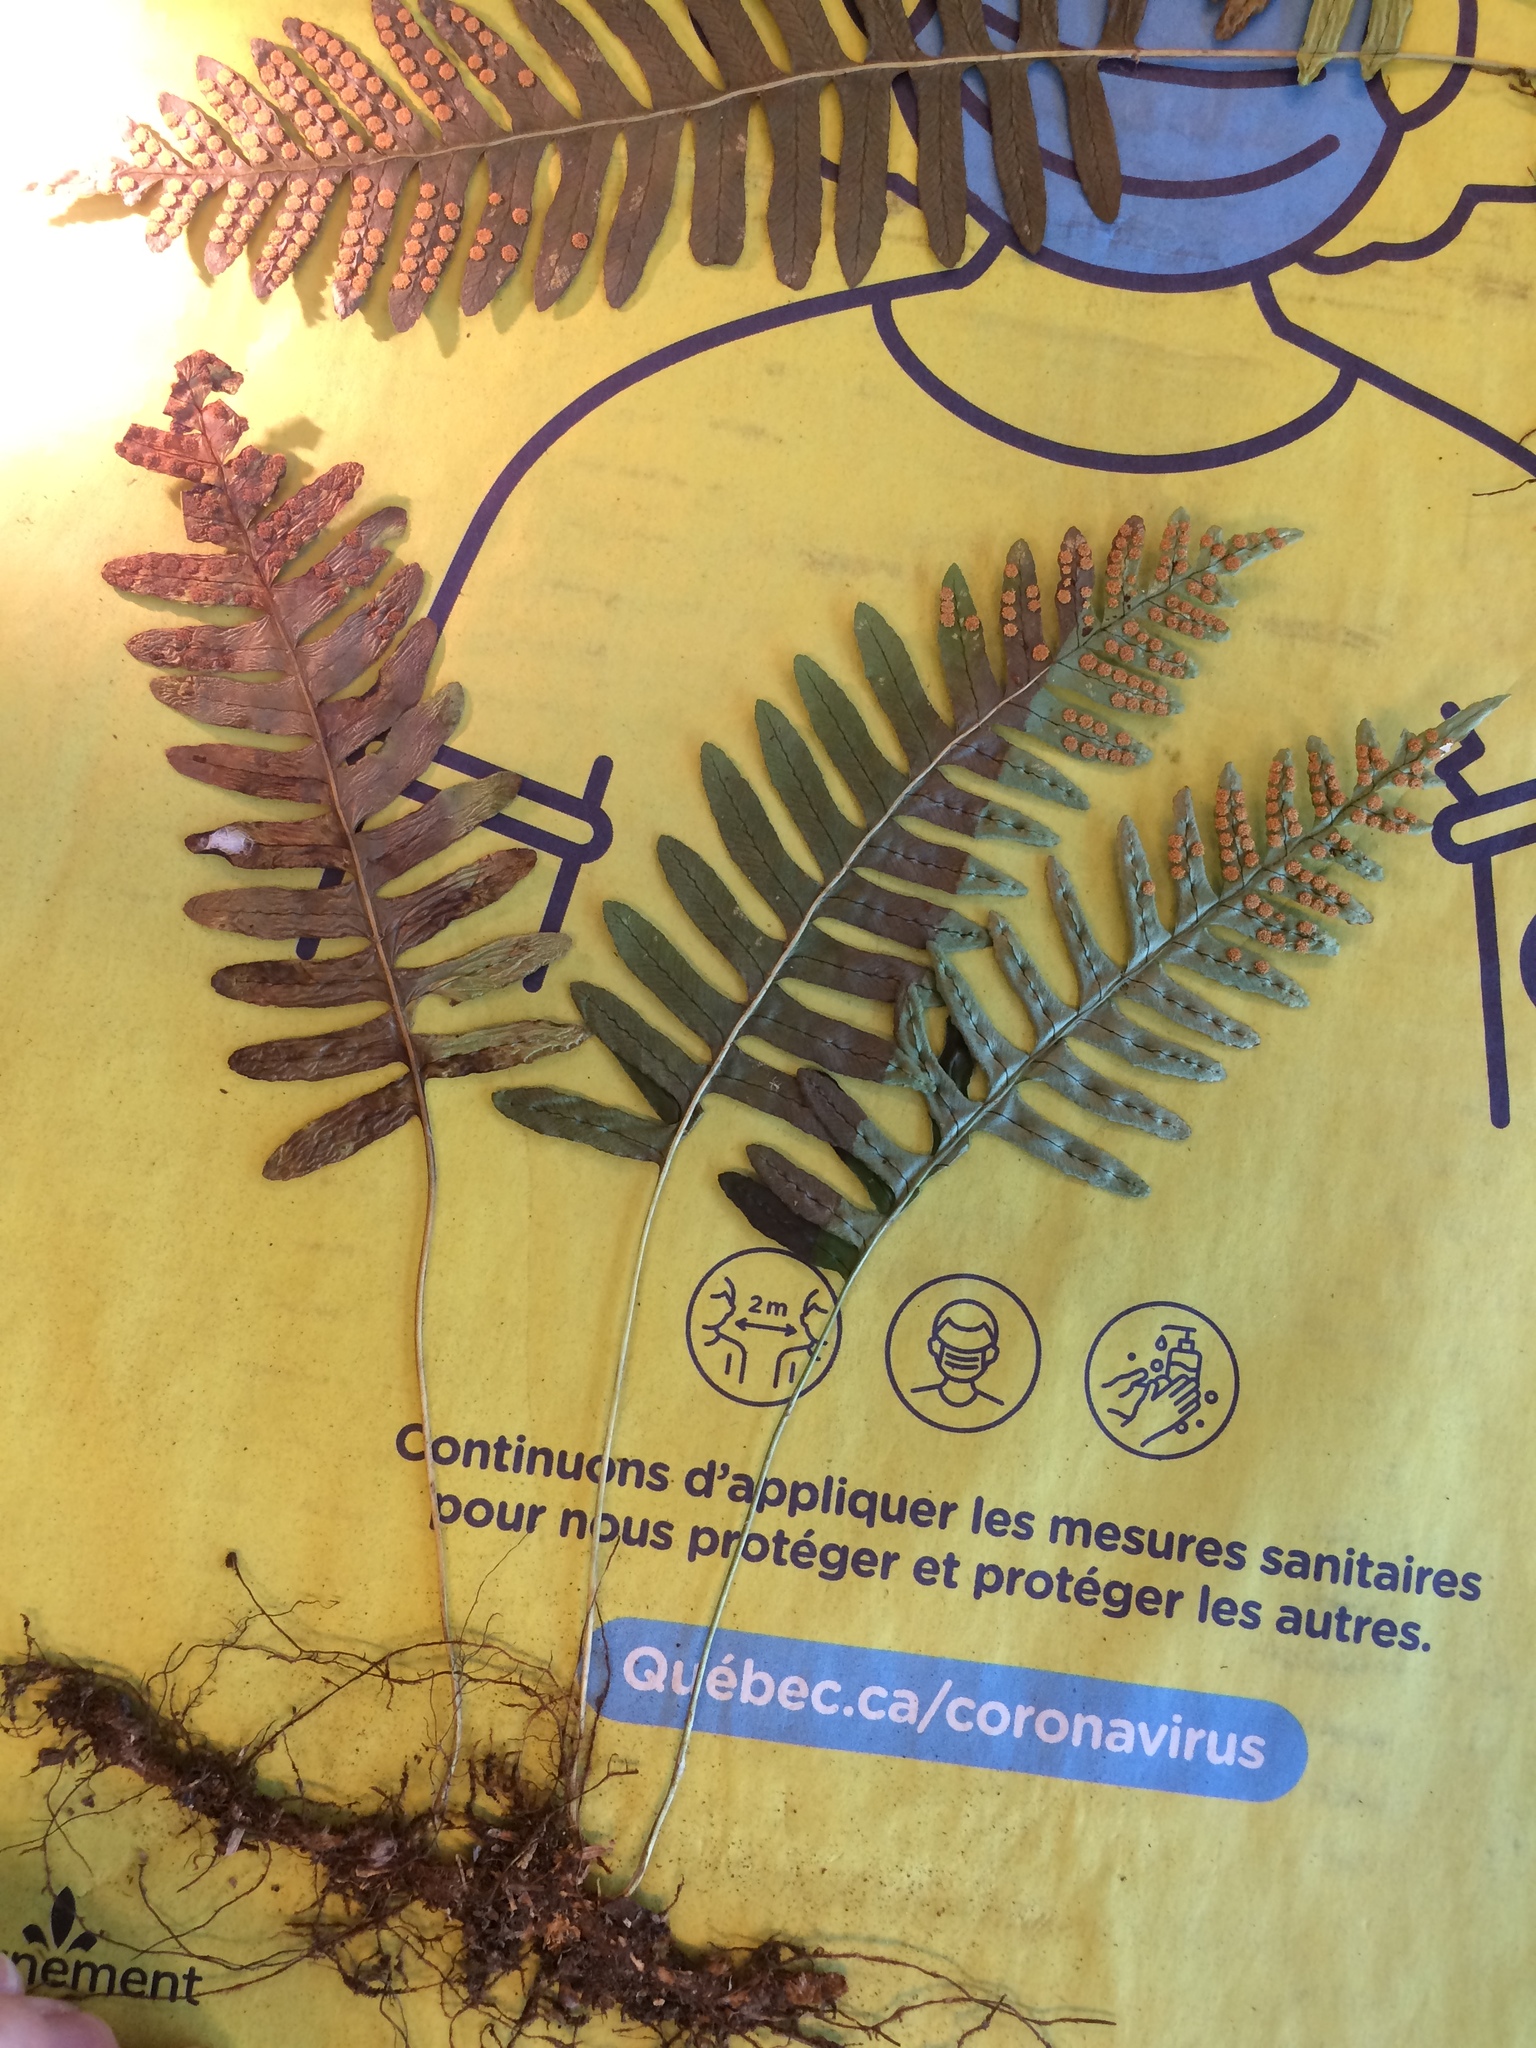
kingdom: Plantae
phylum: Tracheophyta
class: Polypodiopsida
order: Polypodiales
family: Polypodiaceae
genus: Polypodium
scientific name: Polypodium incognitum
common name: Eastern hybrid polypody
